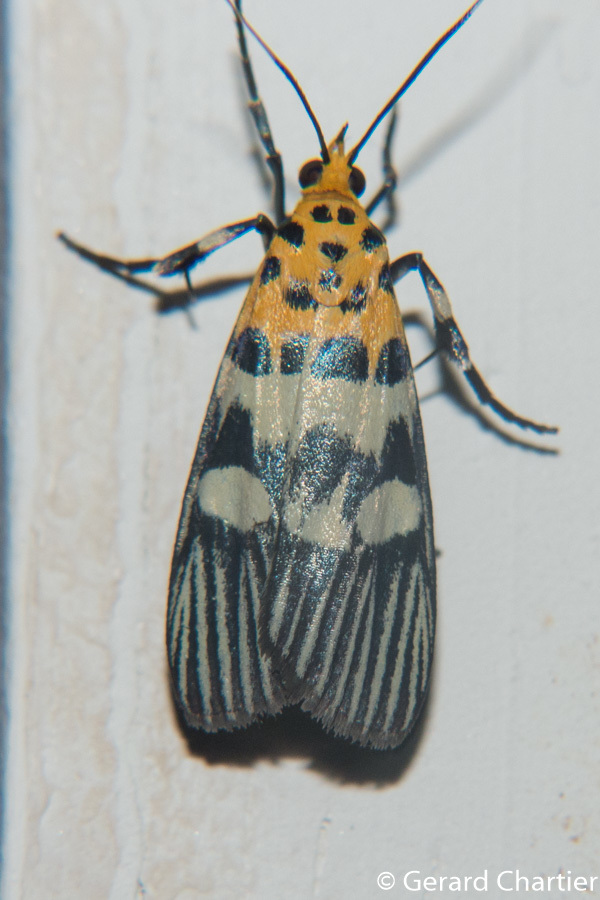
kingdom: Animalia
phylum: Arthropoda
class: Insecta
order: Lepidoptera
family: Pyralidae
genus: Vitessa
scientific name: Vitessa suradeva
